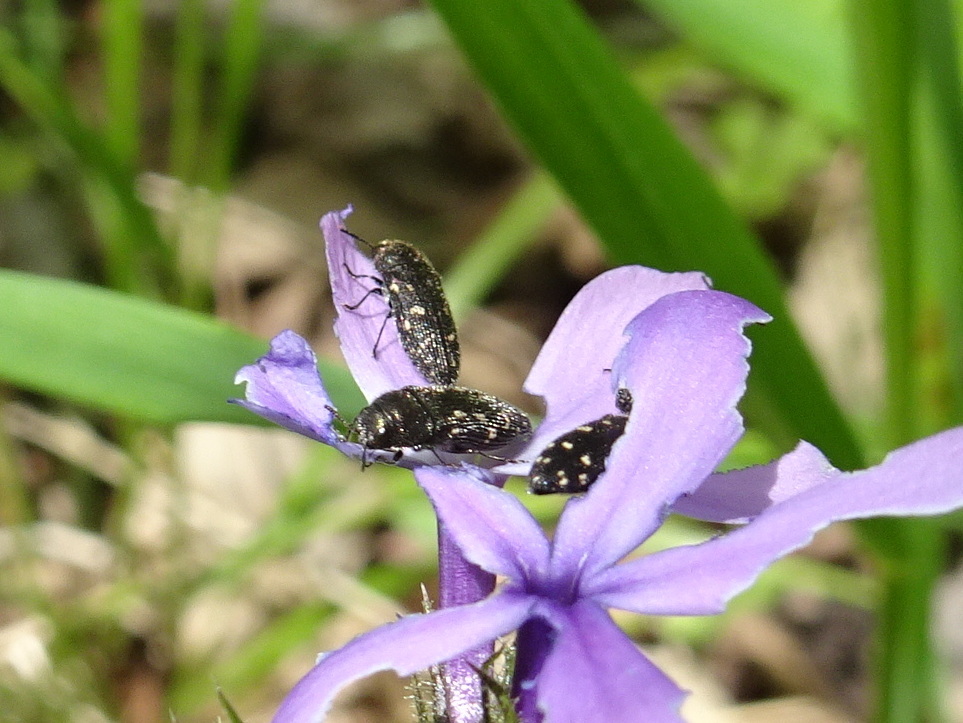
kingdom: Animalia
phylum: Arthropoda
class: Insecta
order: Coleoptera
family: Buprestidae
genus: Acmaeodera
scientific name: Acmaeodera tubulus
